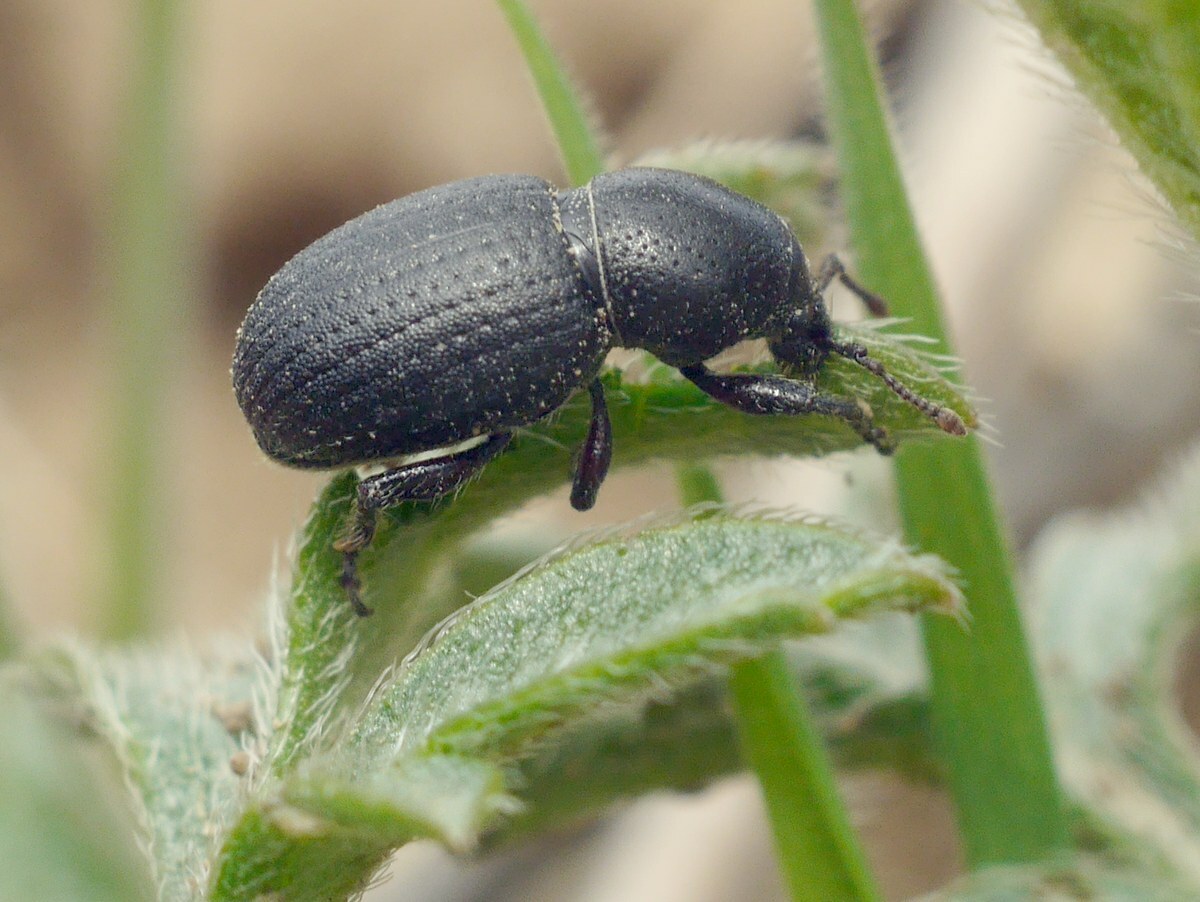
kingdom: Animalia
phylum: Arthropoda
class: Insecta
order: Coleoptera
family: Curculionidae
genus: Psallidium
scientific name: Psallidium maxillosum
